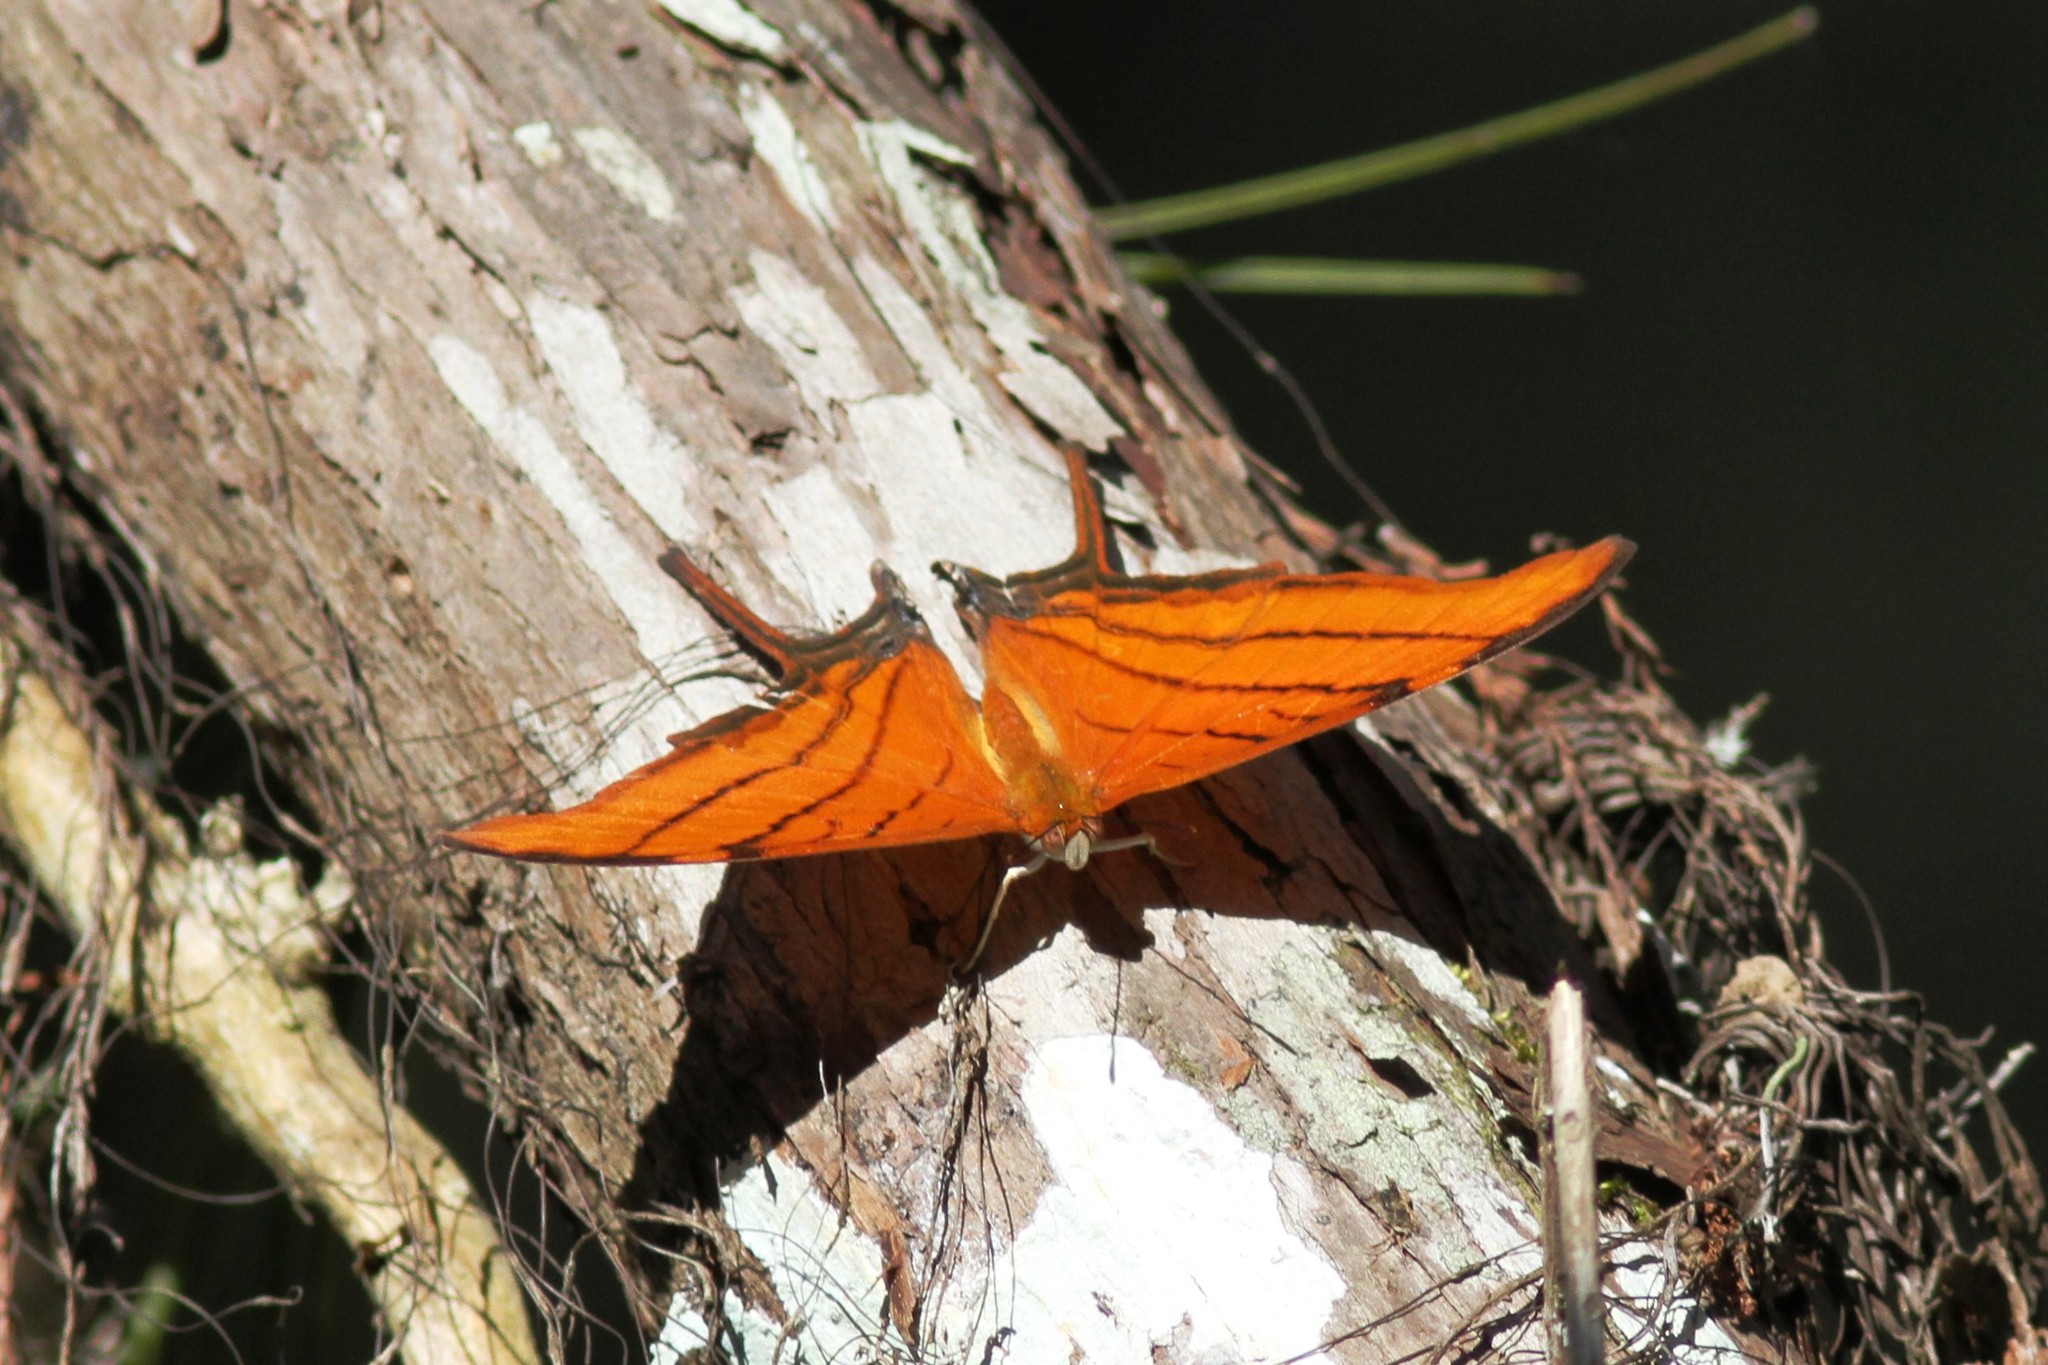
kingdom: Animalia
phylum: Arthropoda
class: Insecta
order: Lepidoptera
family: Nymphalidae
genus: Marpesia
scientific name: Marpesia petreus
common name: Red dagger wing
